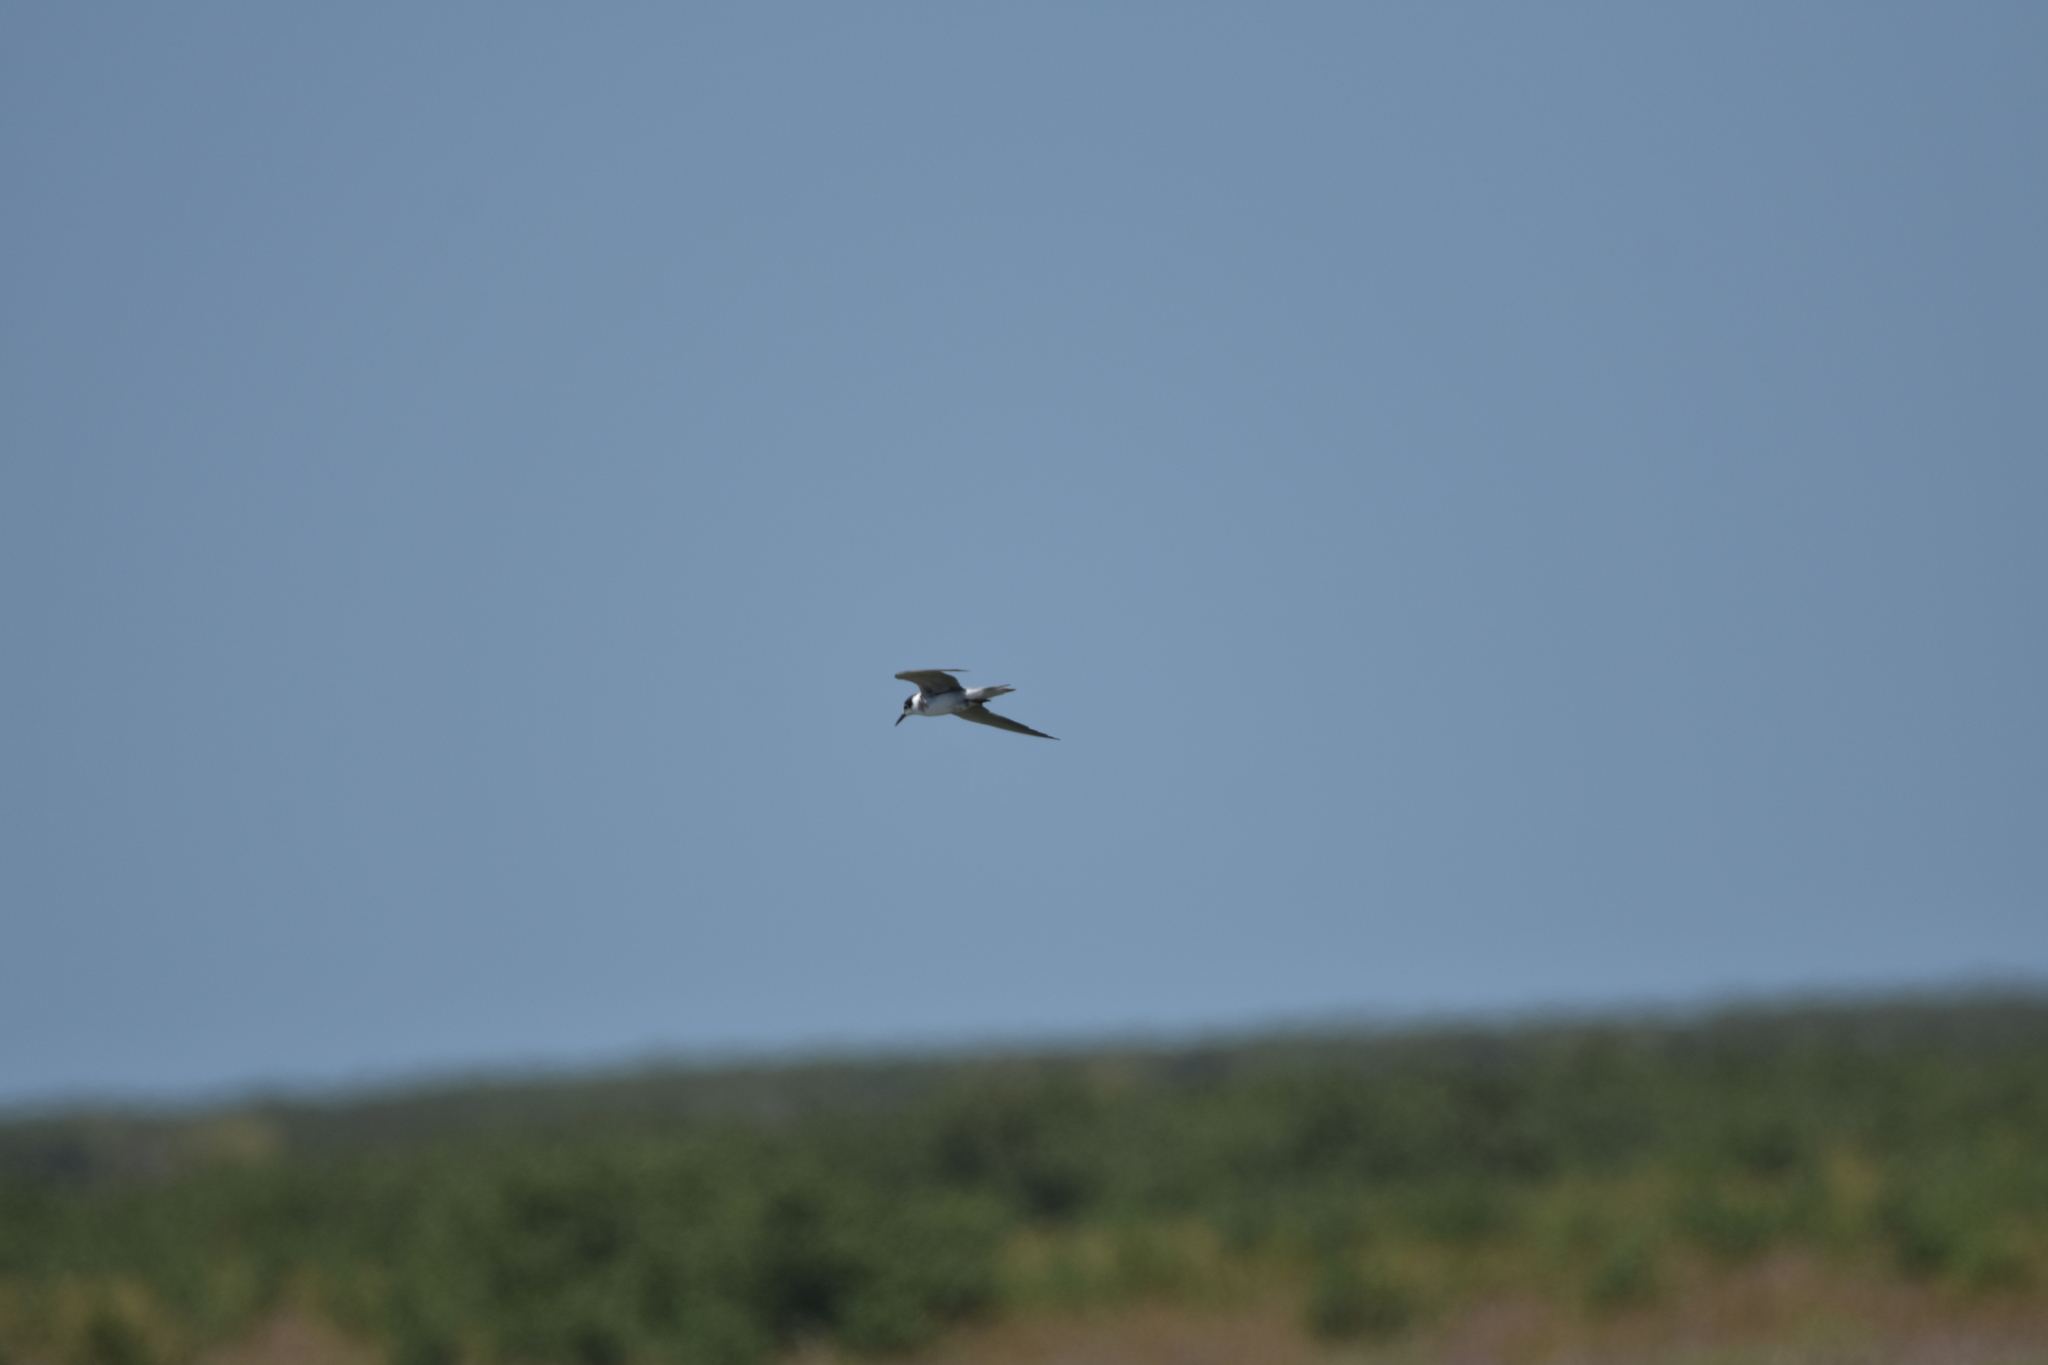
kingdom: Animalia
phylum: Chordata
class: Aves
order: Charadriiformes
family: Laridae
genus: Chlidonias
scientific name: Chlidonias niger
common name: Black tern
